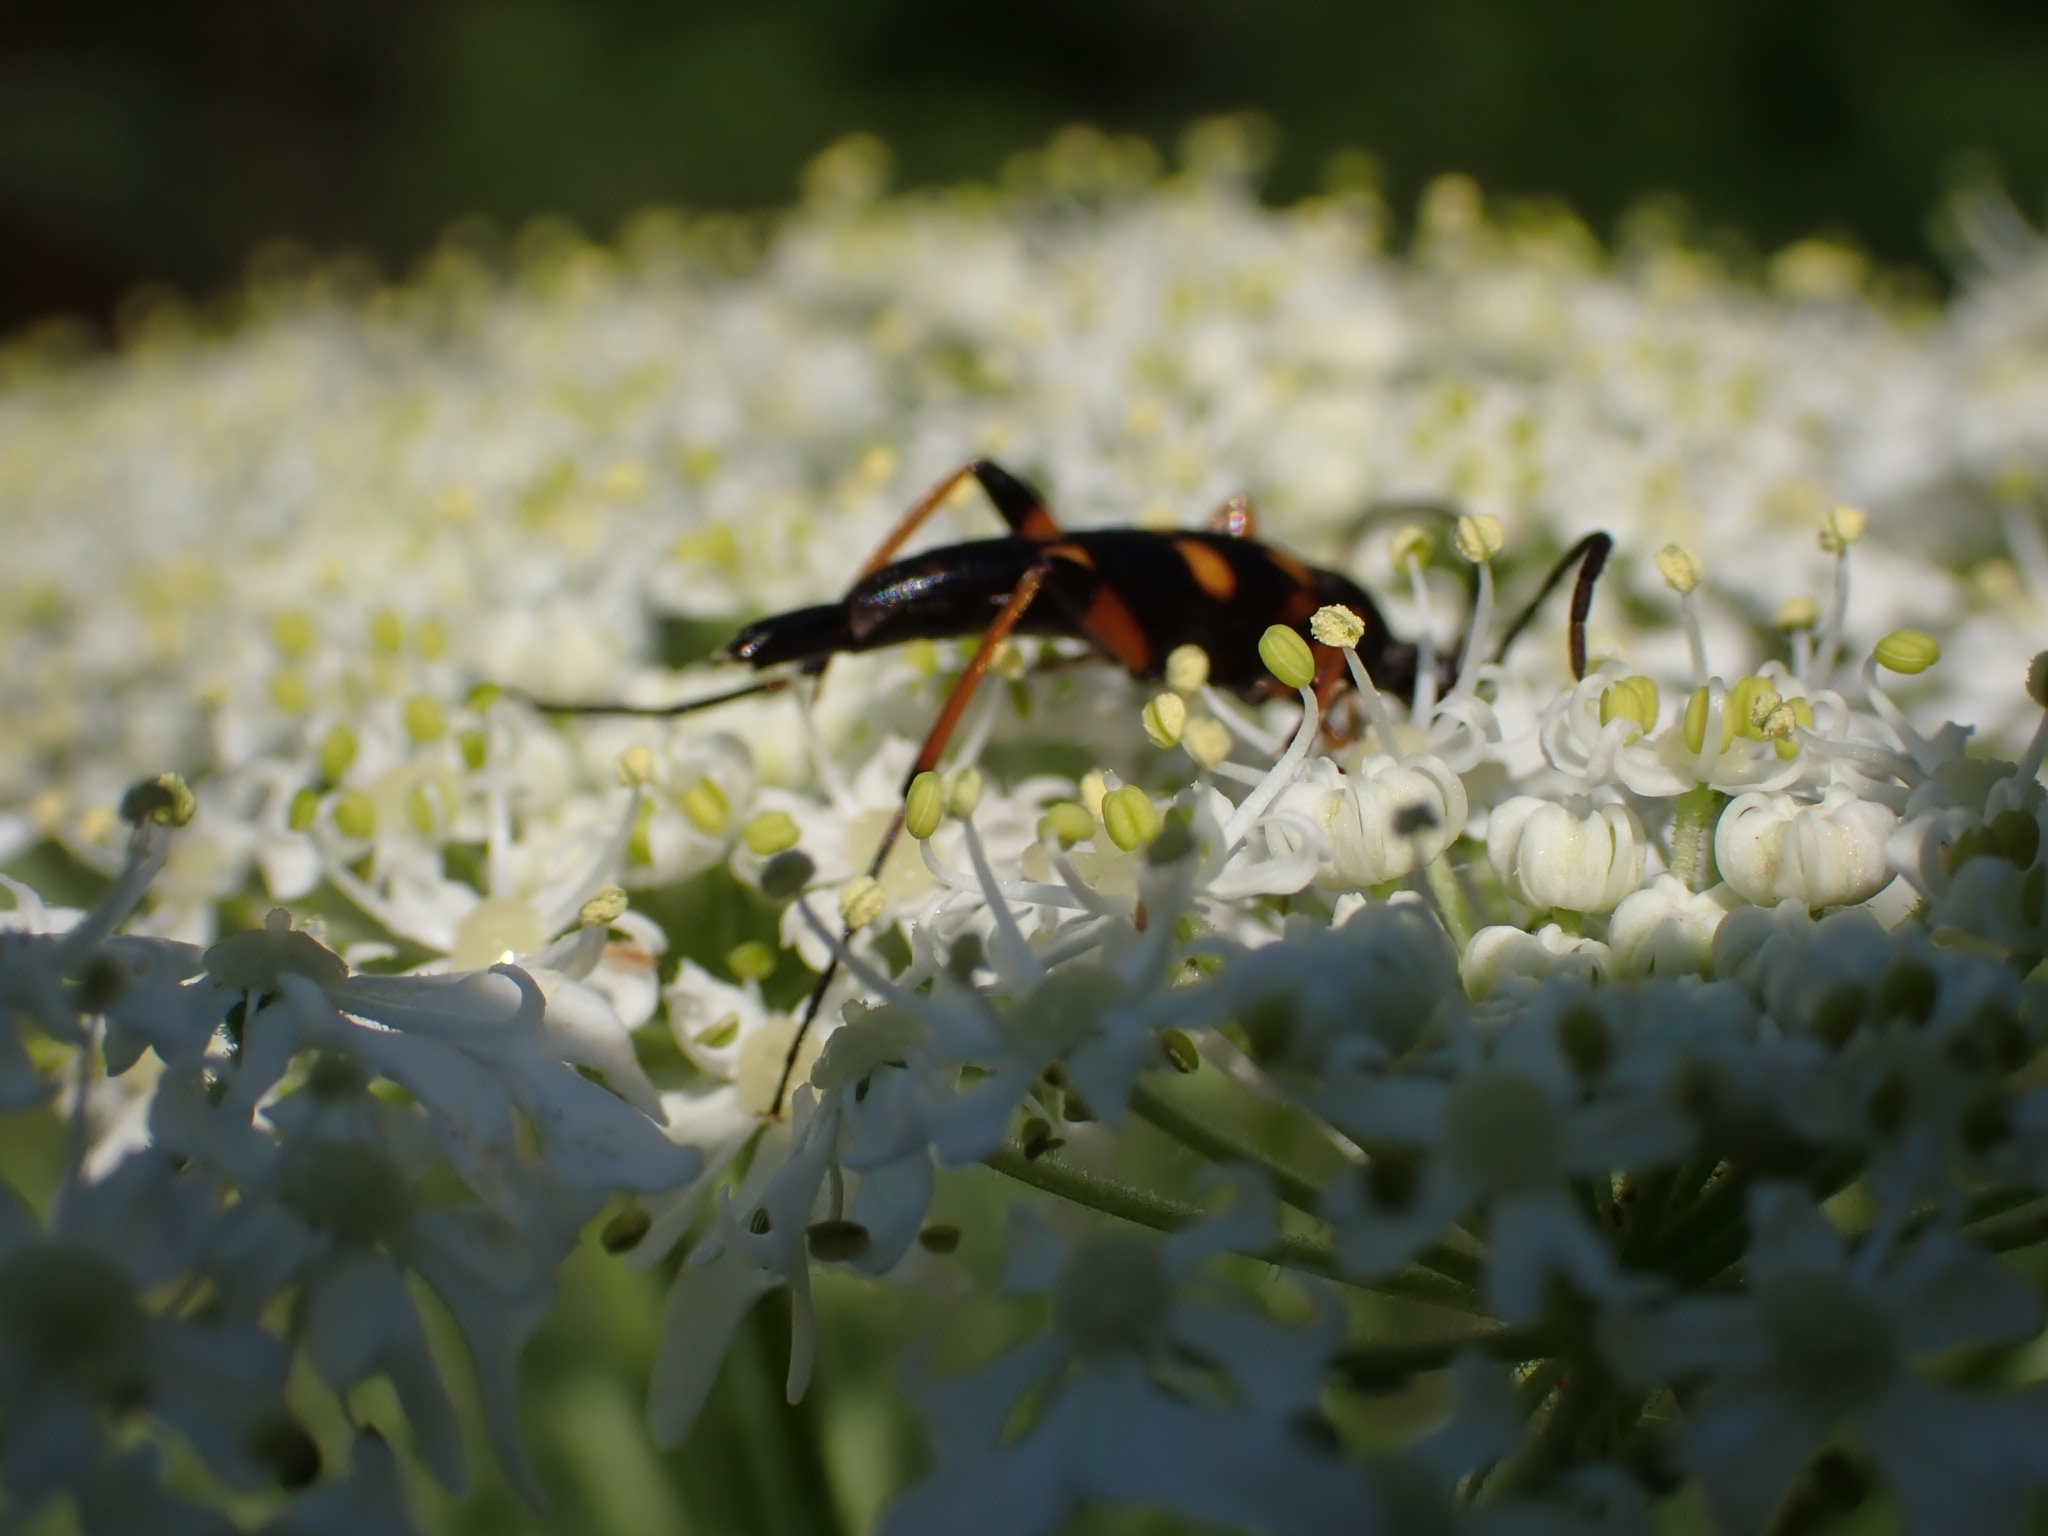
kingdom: Animalia
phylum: Arthropoda
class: Insecta
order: Coleoptera
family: Cerambycidae
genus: Strangalia
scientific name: Strangalia attenuata
